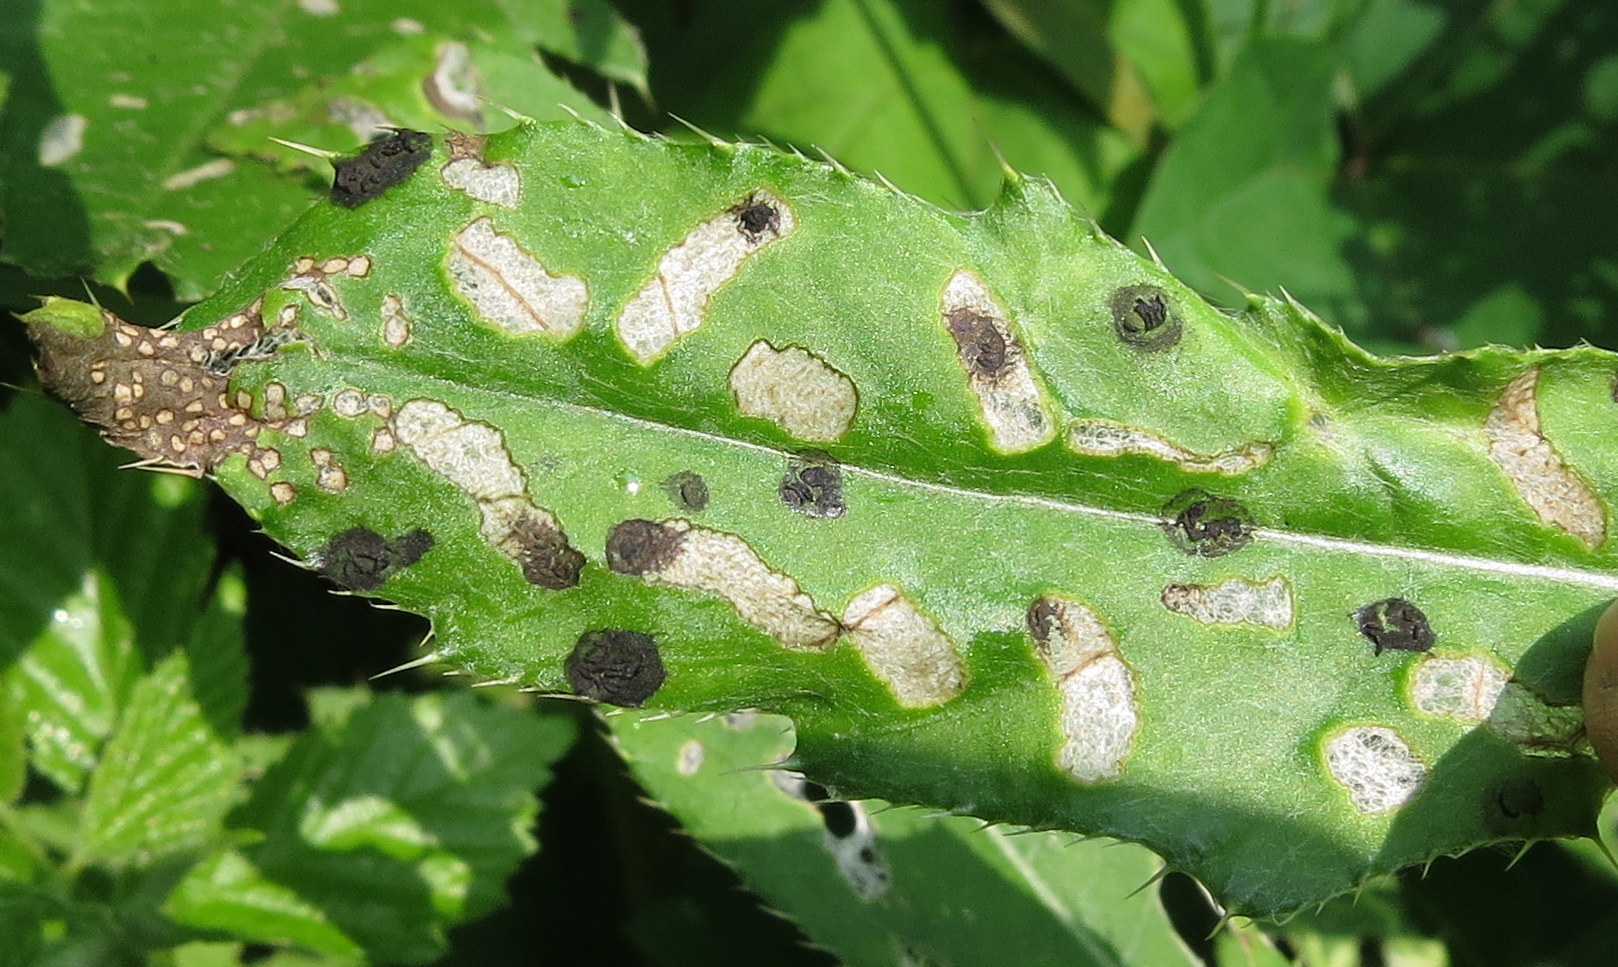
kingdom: Animalia
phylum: Arthropoda
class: Insecta
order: Coleoptera
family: Chrysomelidae
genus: Cassida
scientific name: Cassida rubiginosa
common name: Thistle tortoise beetle
